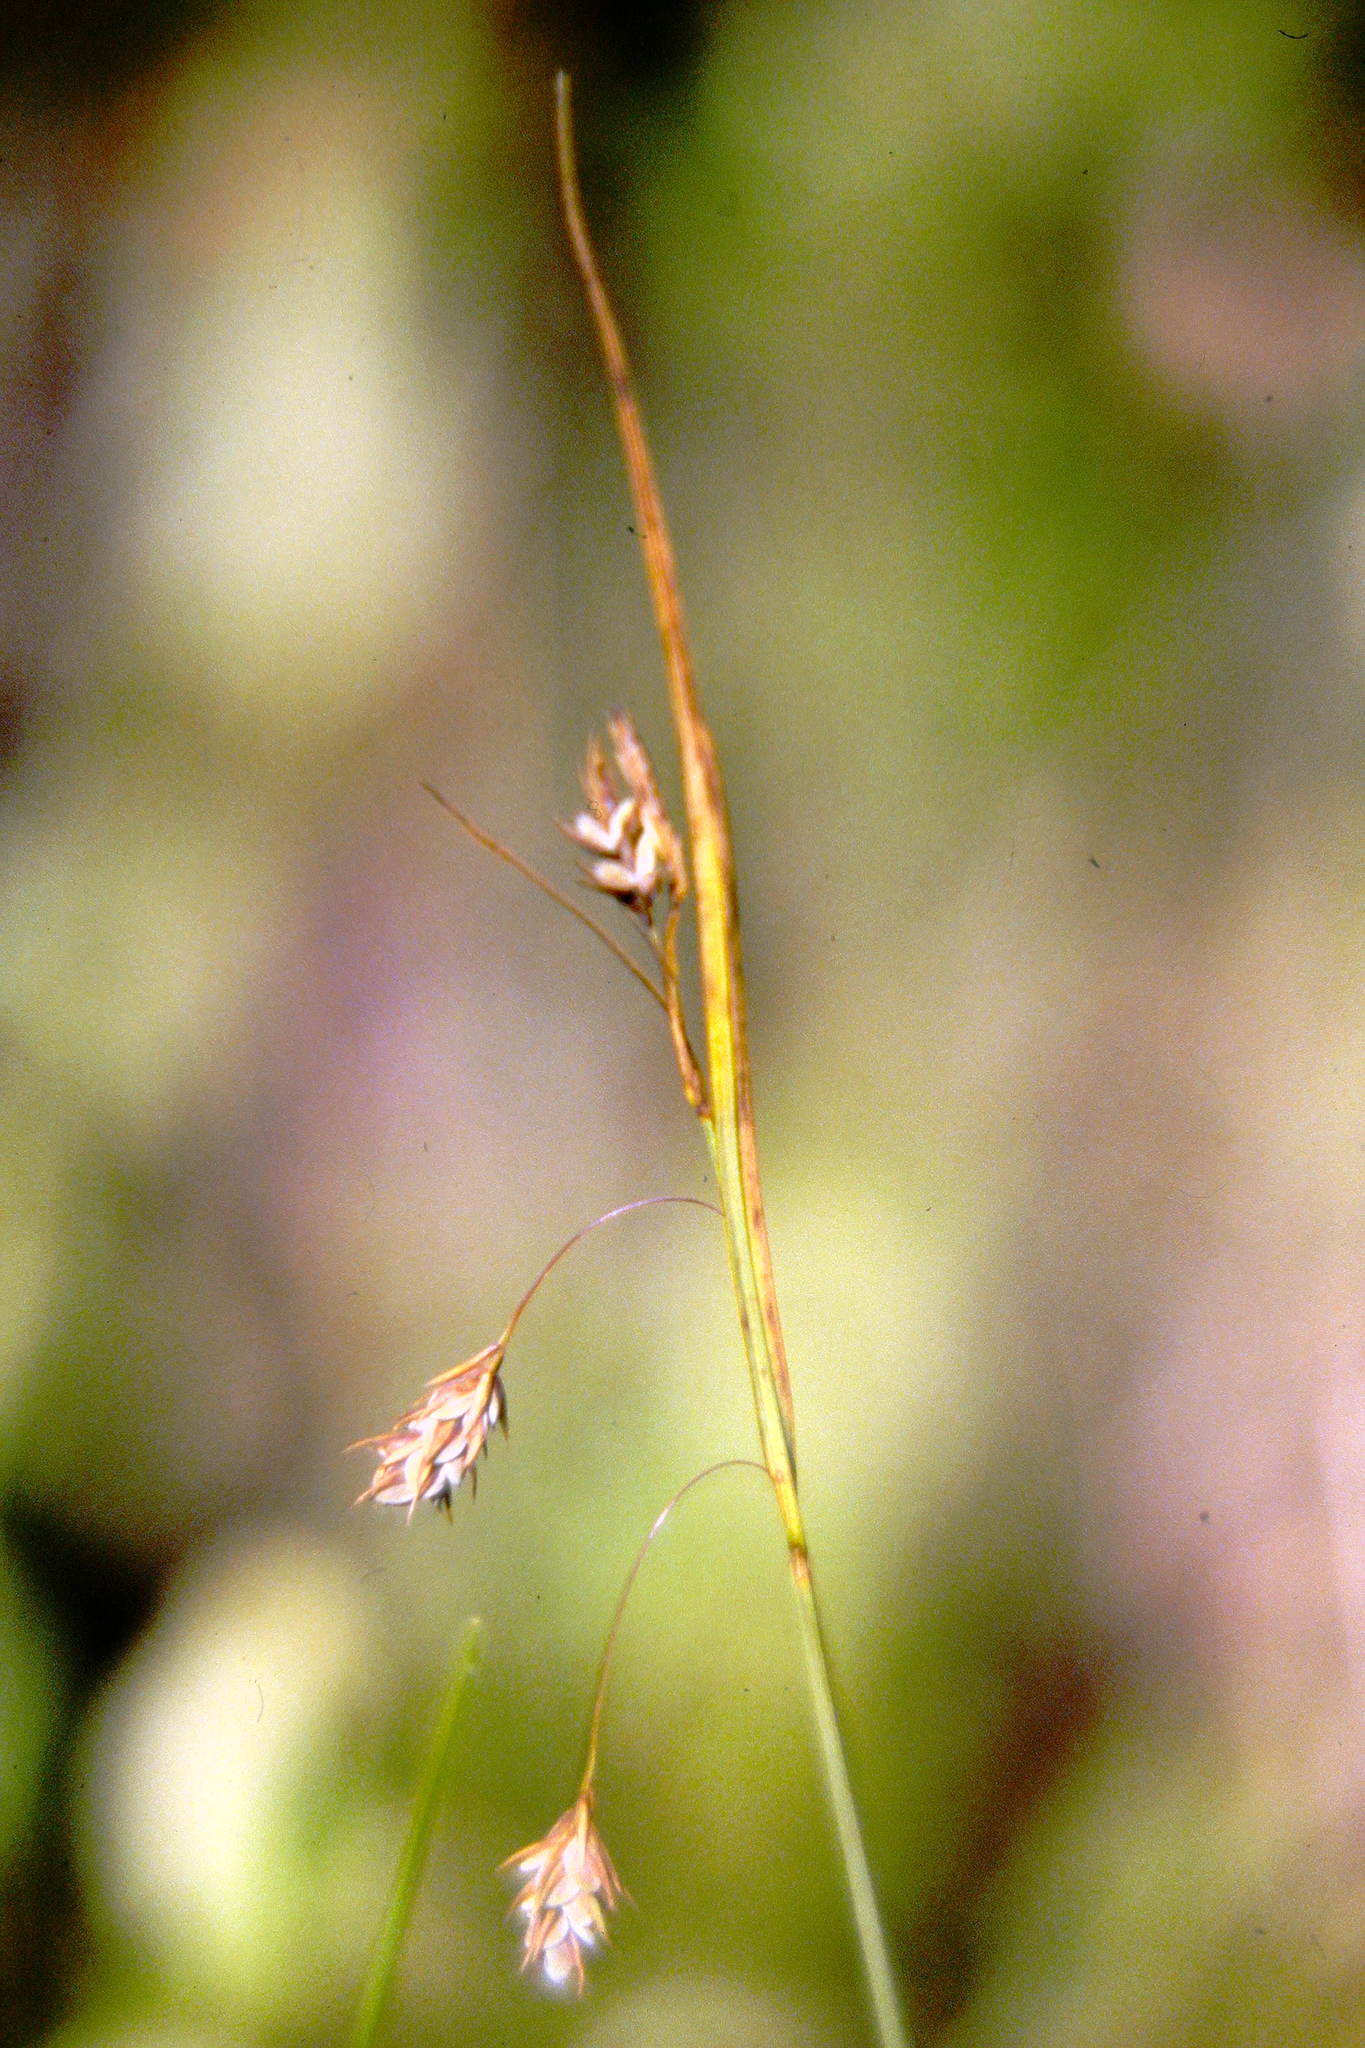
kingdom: Plantae
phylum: Tracheophyta
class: Liliopsida
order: Poales
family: Cyperaceae
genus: Carex
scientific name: Carex magellanica
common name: Bog sedge
